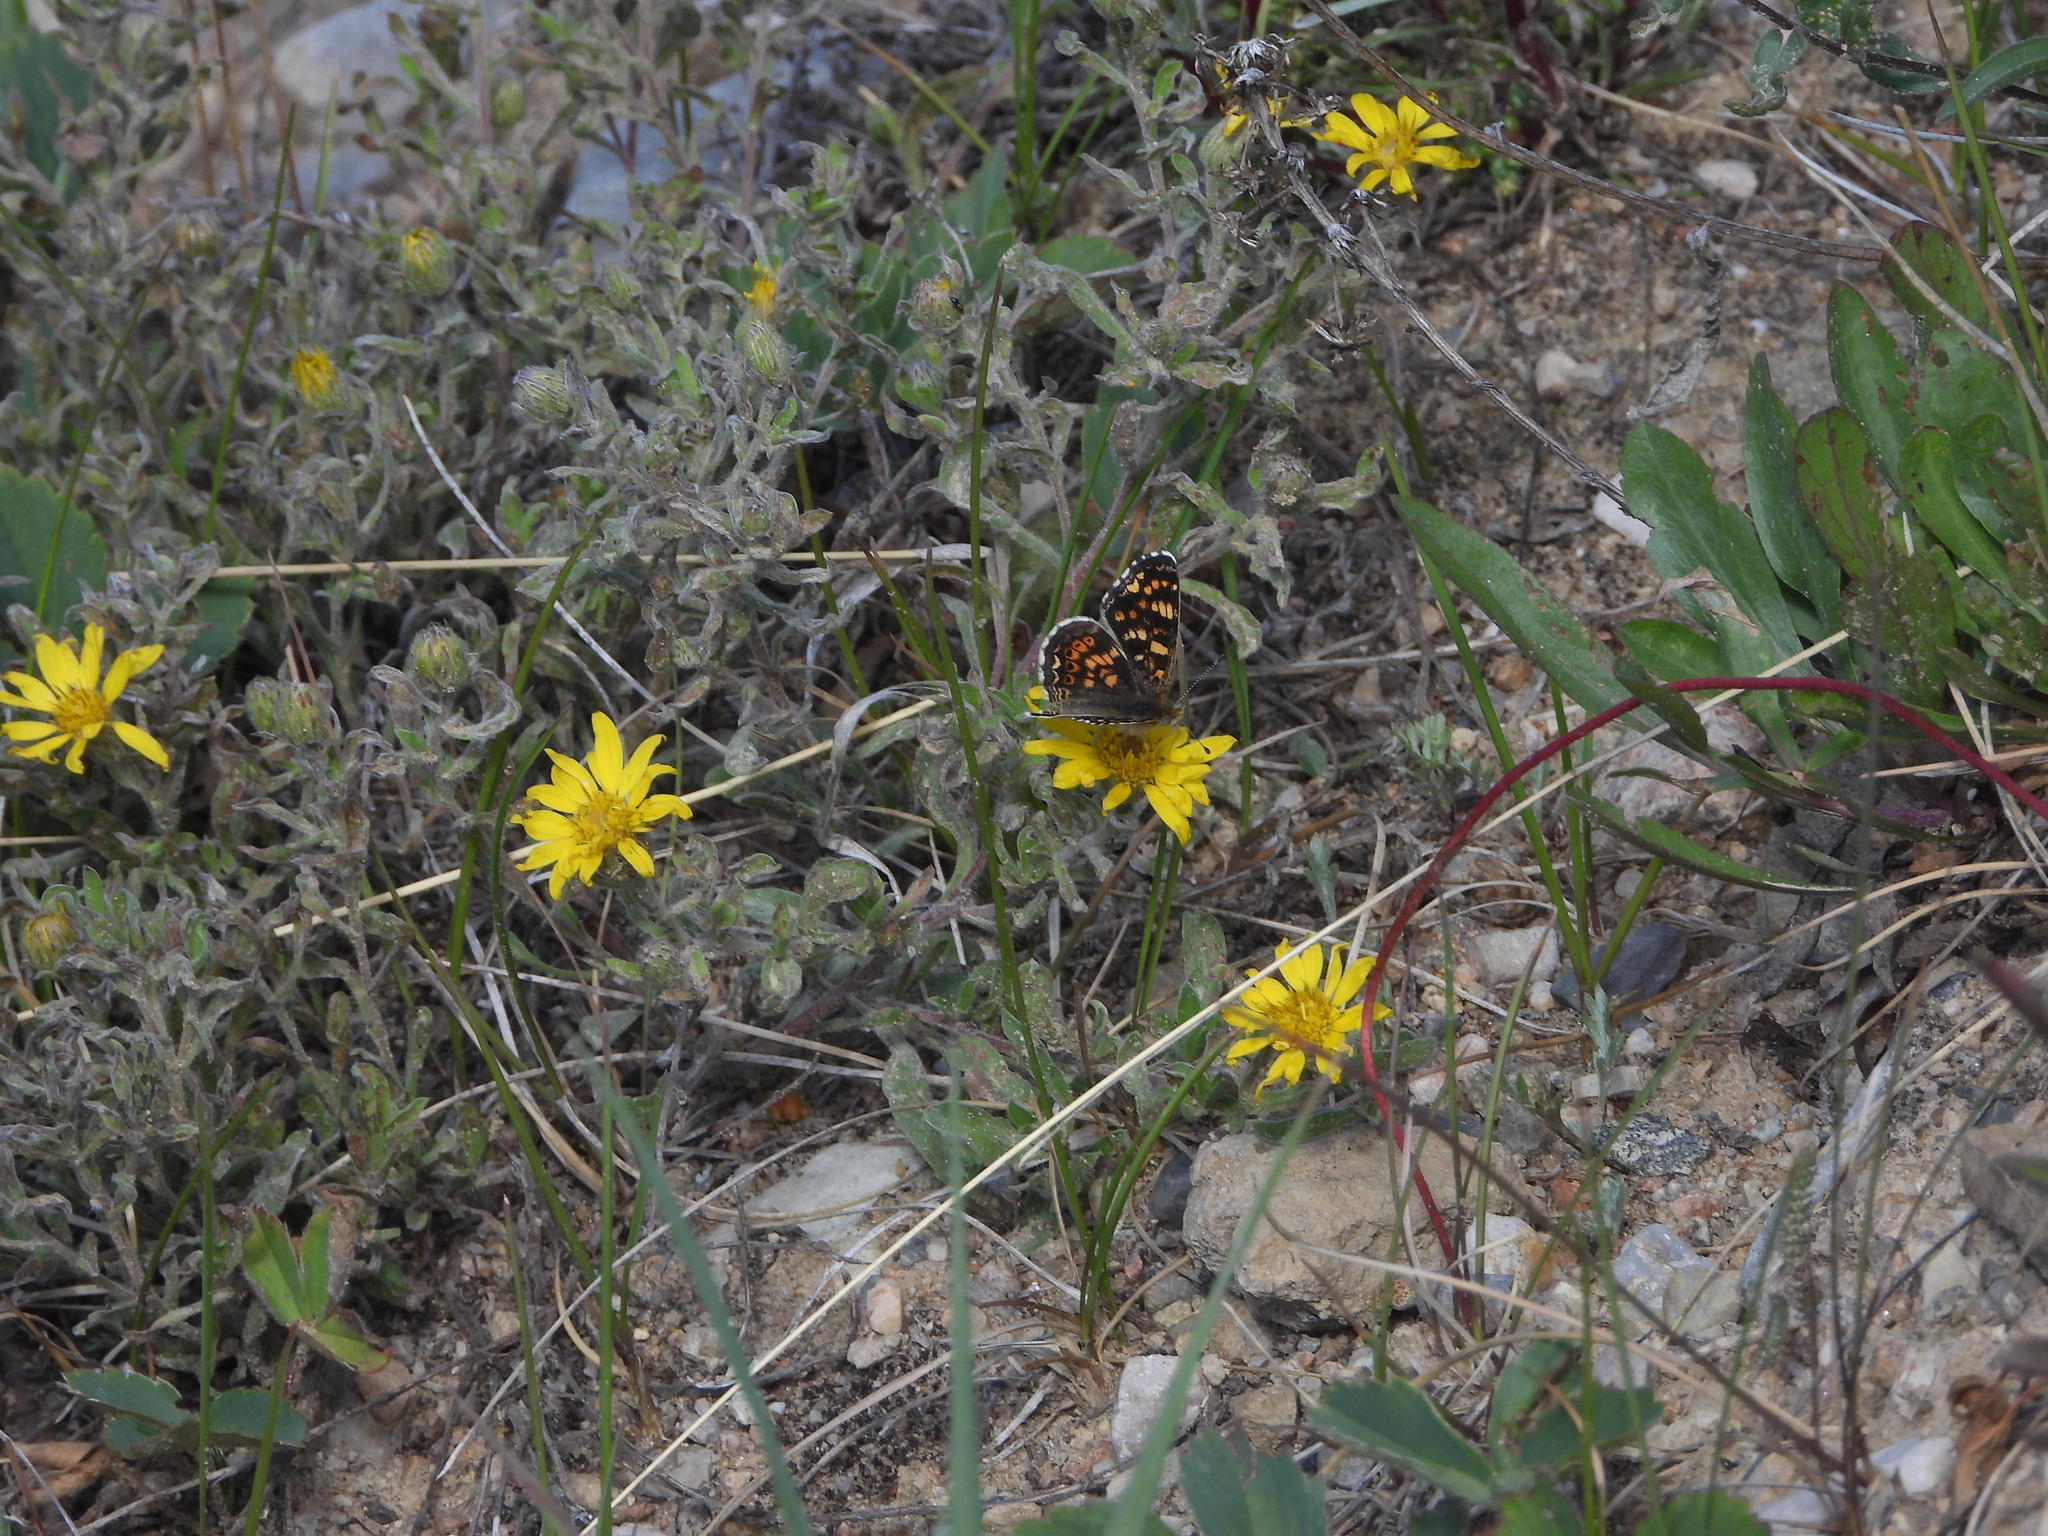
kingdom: Animalia
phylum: Arthropoda
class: Insecta
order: Lepidoptera
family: Nymphalidae
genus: Phyciodes
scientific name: Phyciodes tharos
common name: Pearl crescent
